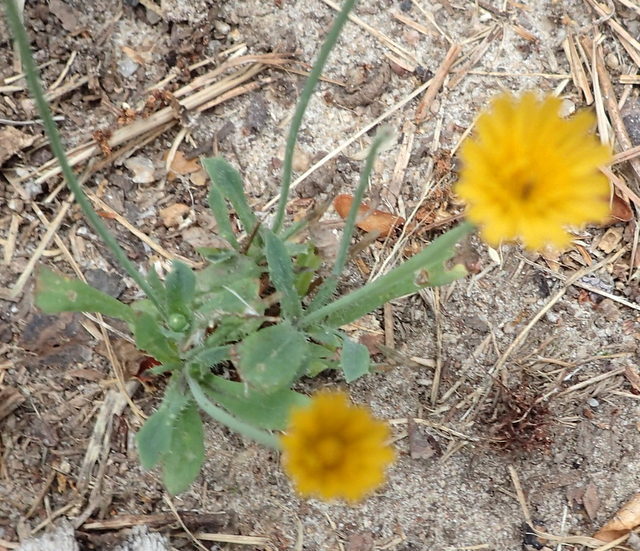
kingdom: Plantae
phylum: Tracheophyta
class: Magnoliopsida
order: Asterales
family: Asteraceae
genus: Krigia
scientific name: Krigia virginica
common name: Virginia dwarf-dandelion
